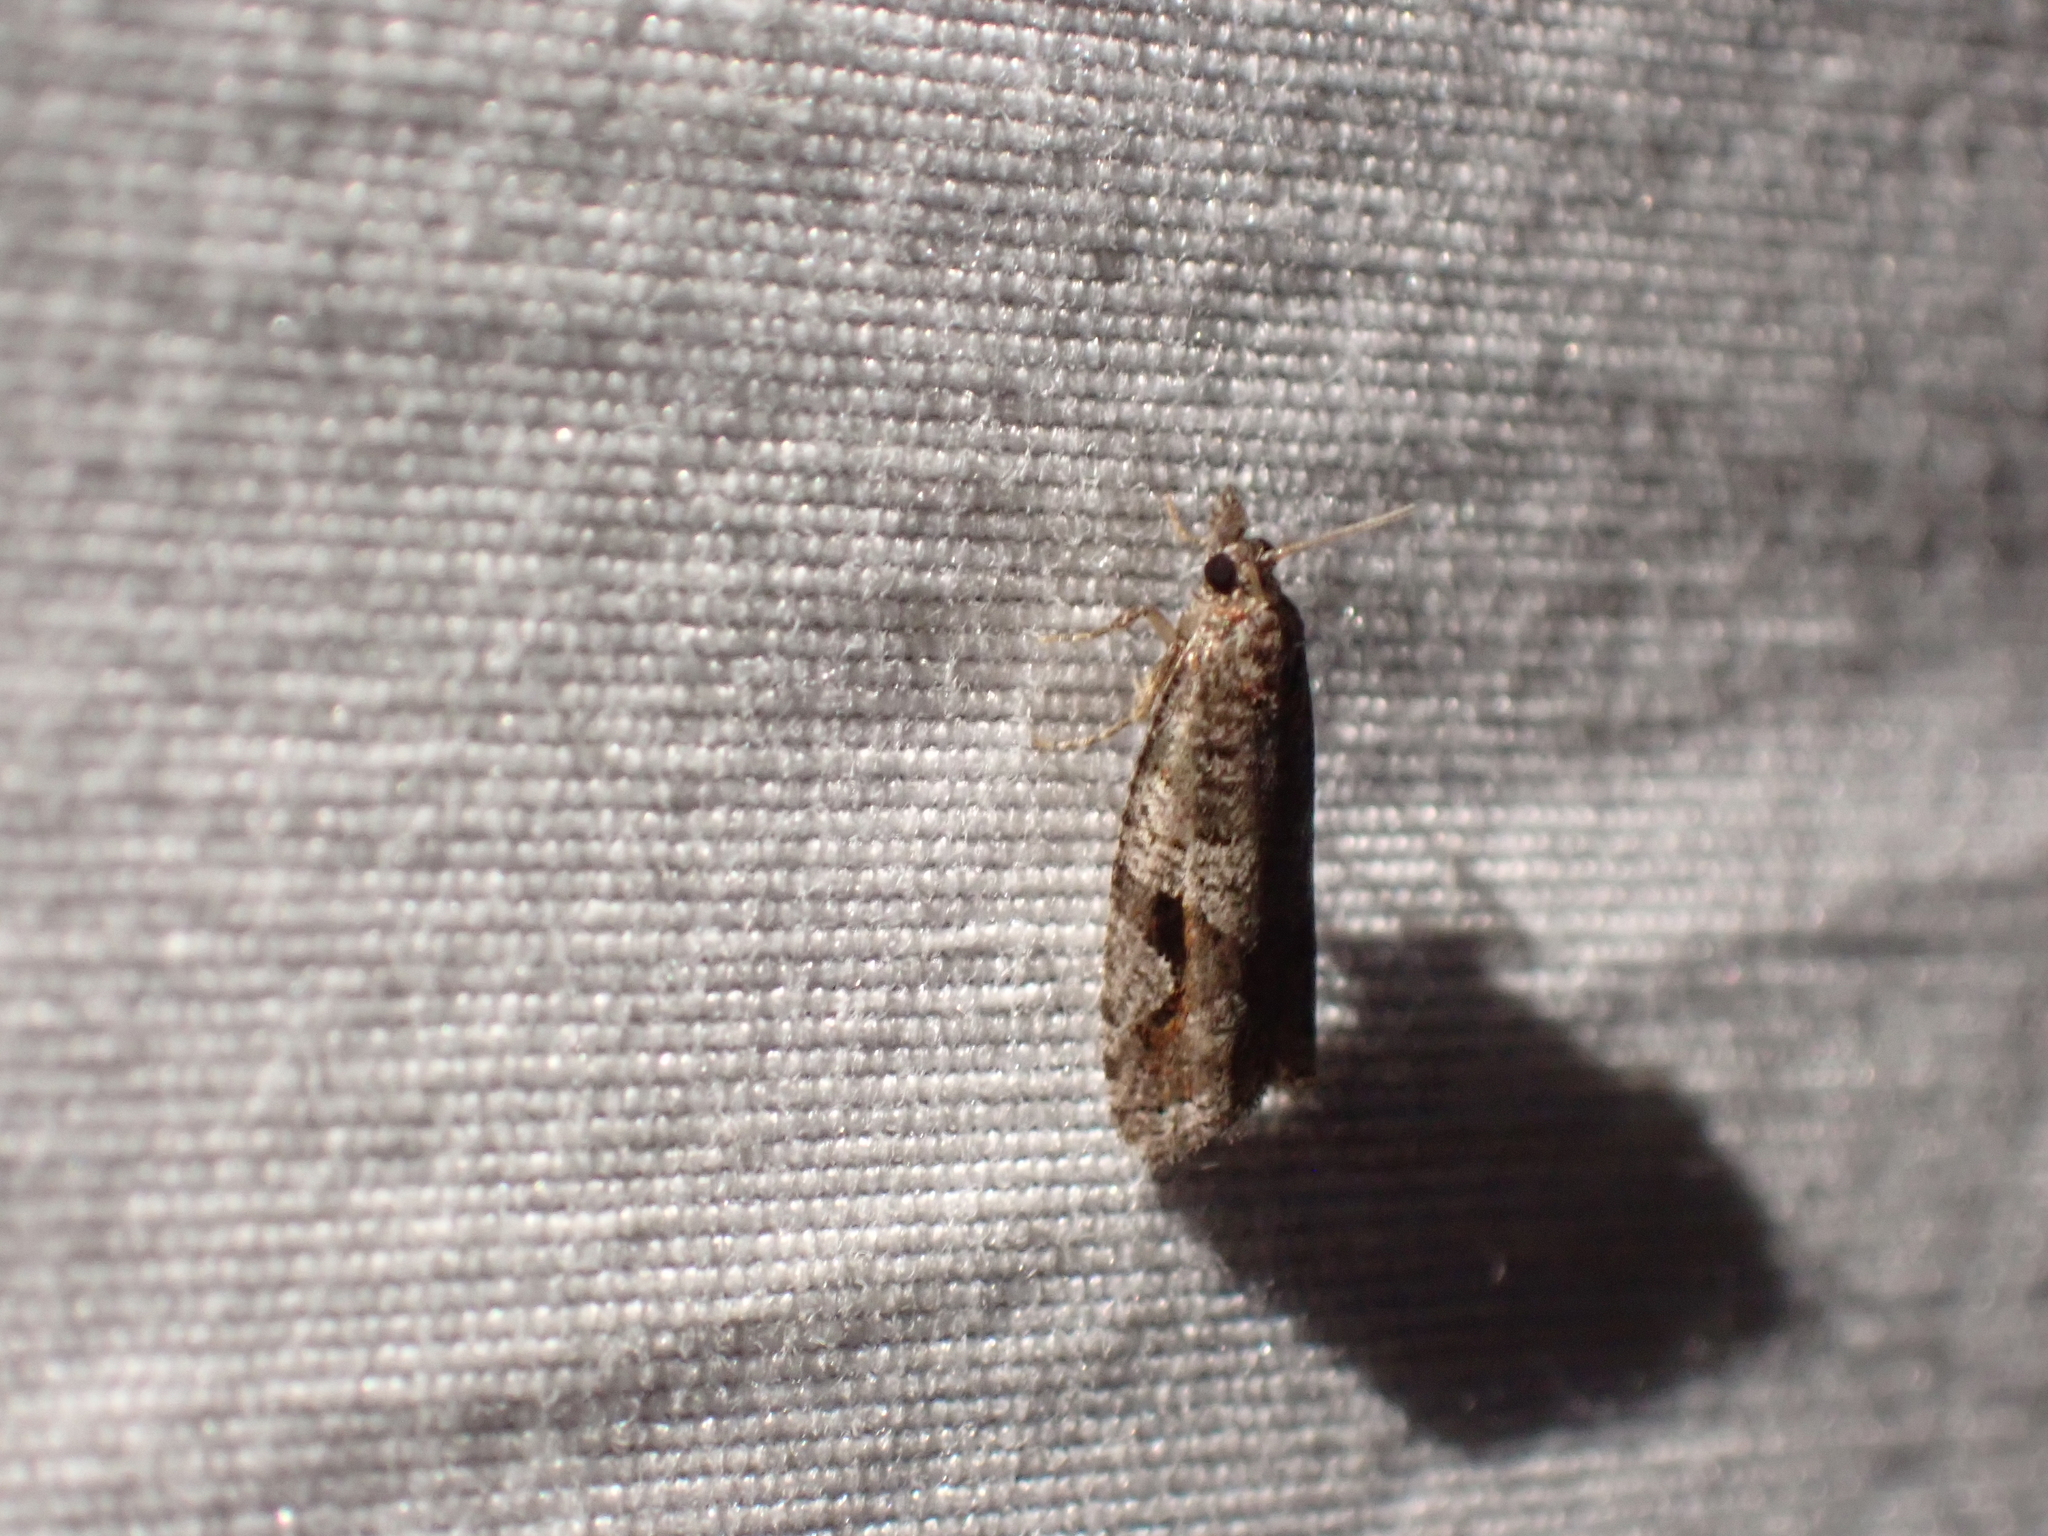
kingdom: Animalia
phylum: Arthropoda
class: Insecta
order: Lepidoptera
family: Tortricidae
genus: Epinotia
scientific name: Epinotia signiferana
